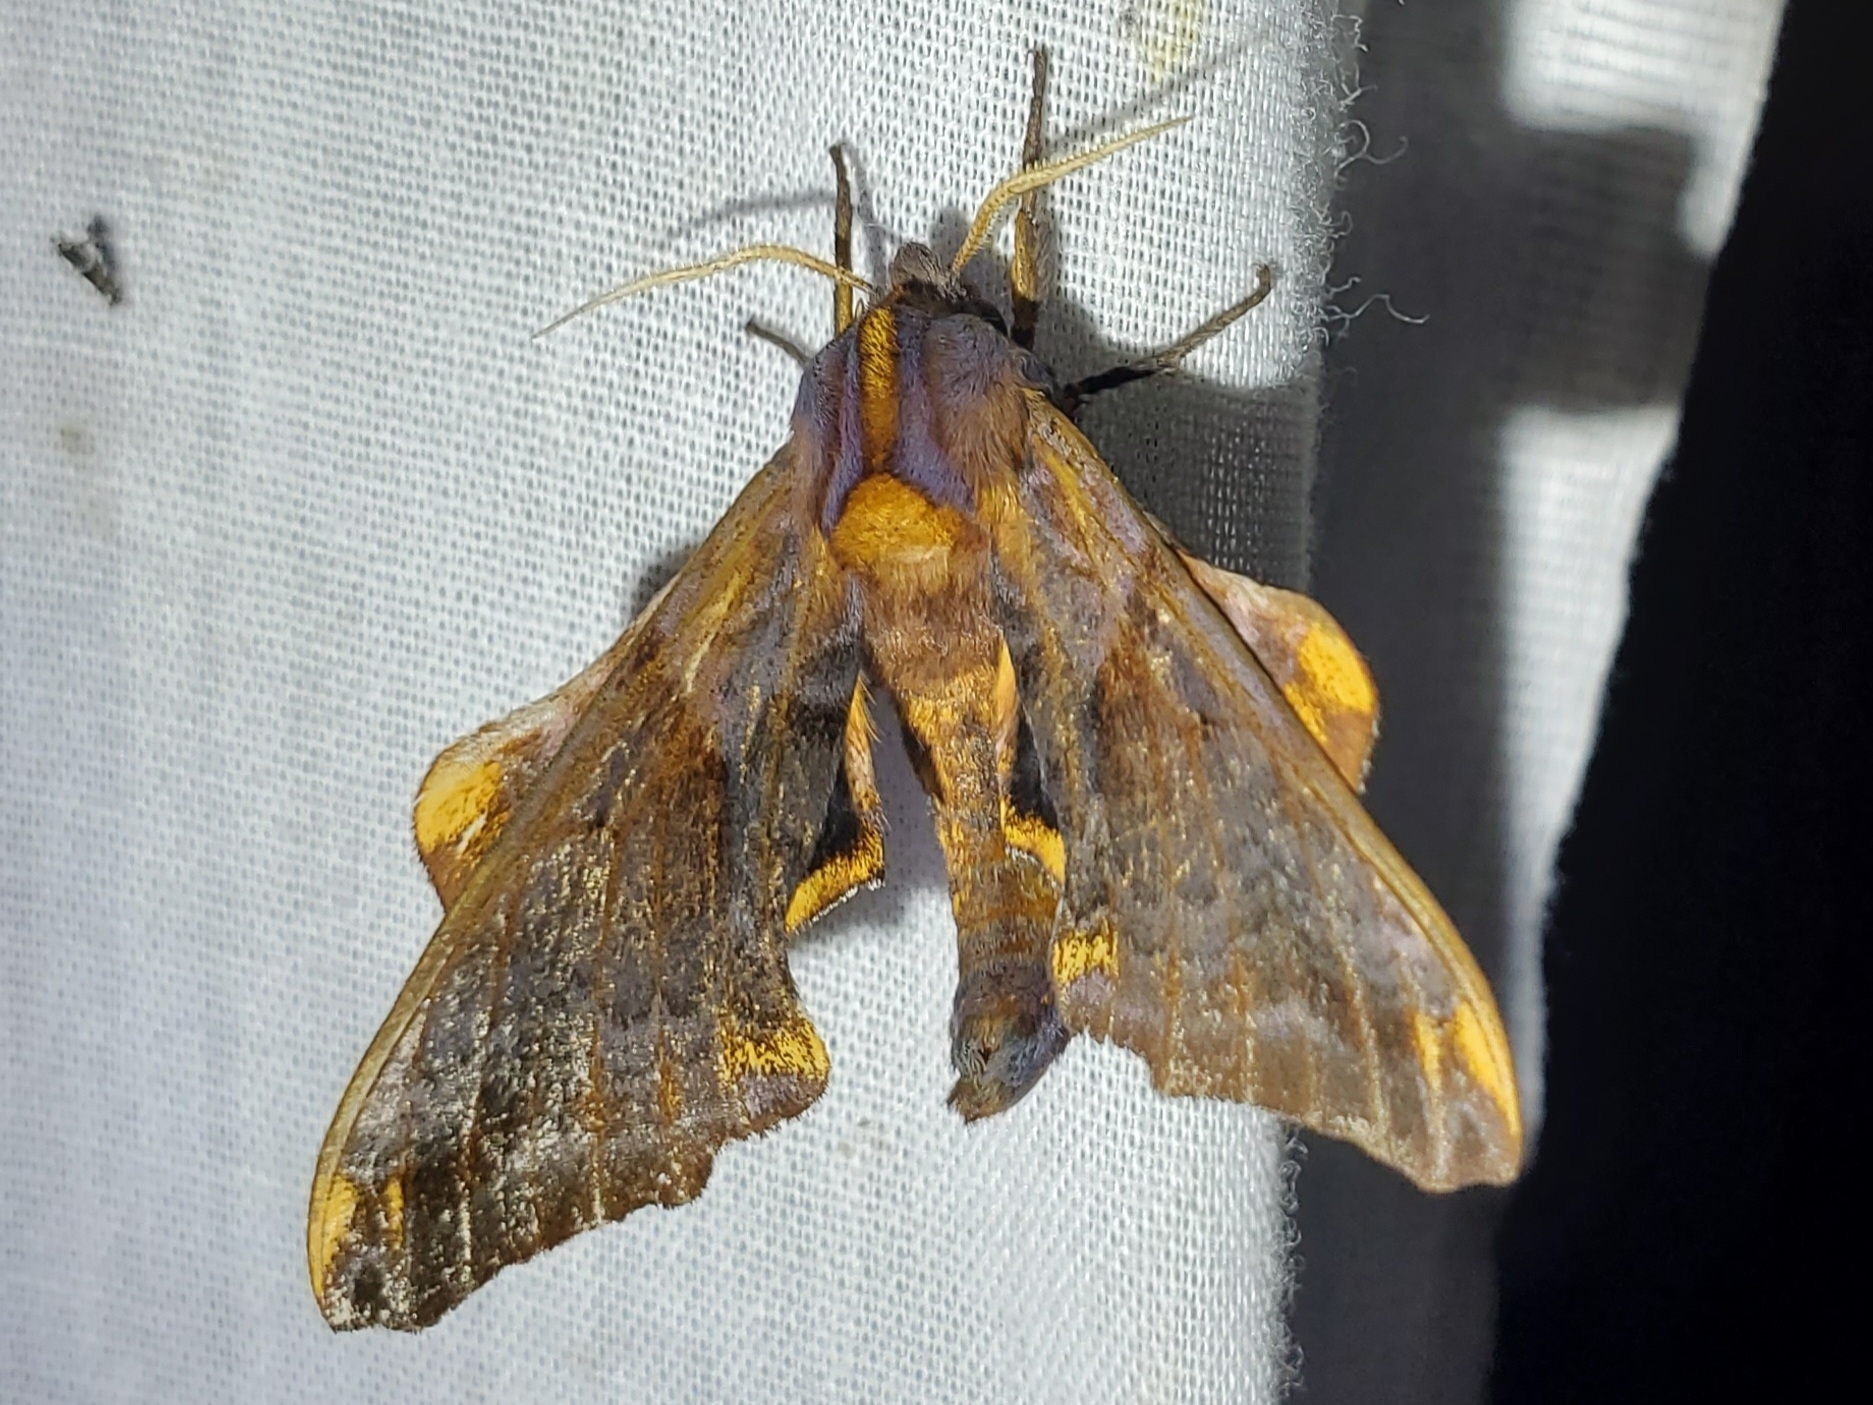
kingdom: Animalia
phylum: Arthropoda
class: Insecta
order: Lepidoptera
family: Sphingidae
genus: Paonias
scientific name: Paonias myops
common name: Small-eyed sphinx
